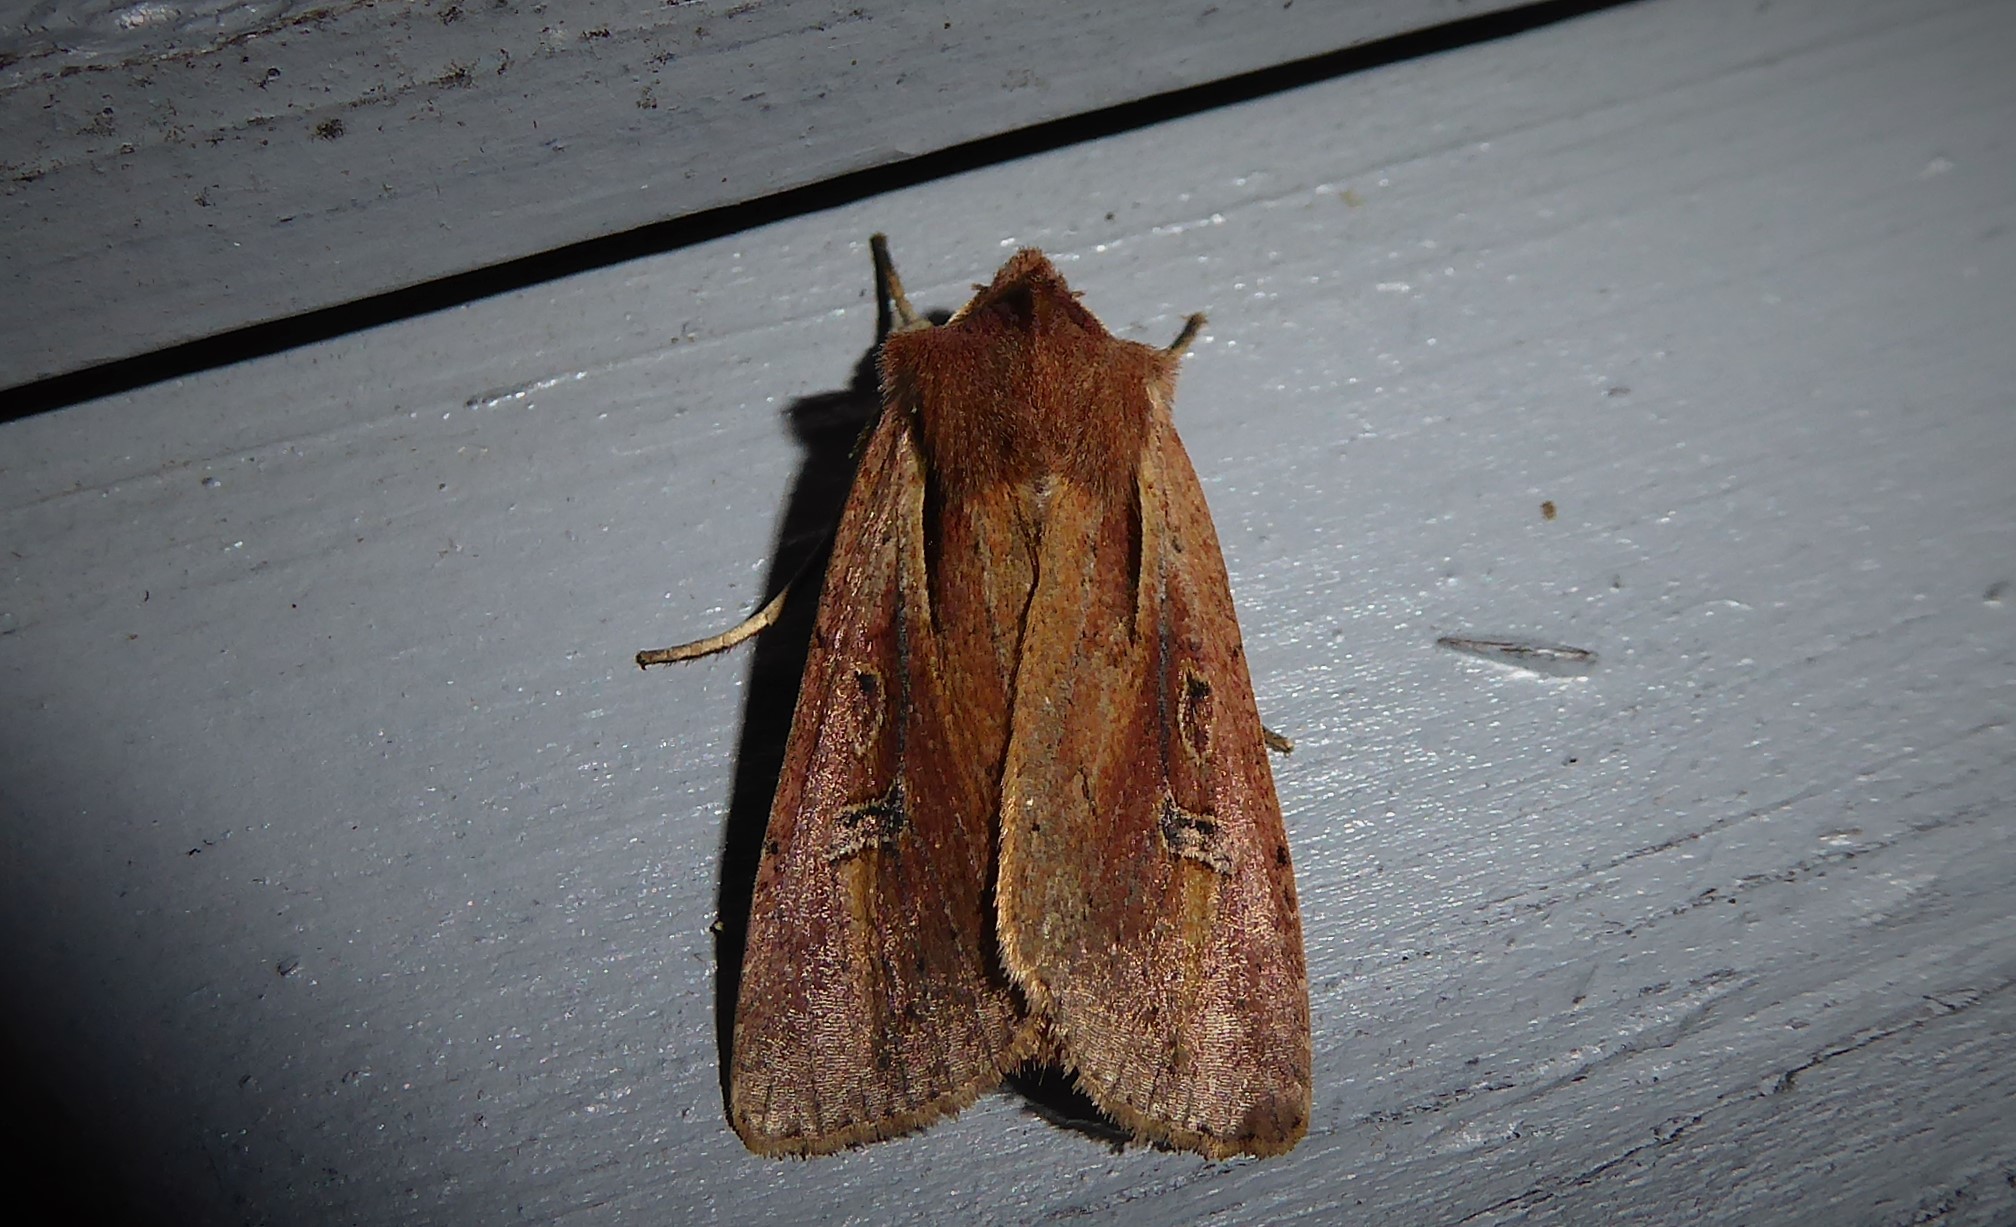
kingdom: Animalia
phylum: Arthropoda
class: Insecta
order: Lepidoptera
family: Noctuidae
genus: Ichneutica
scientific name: Ichneutica atristriga
